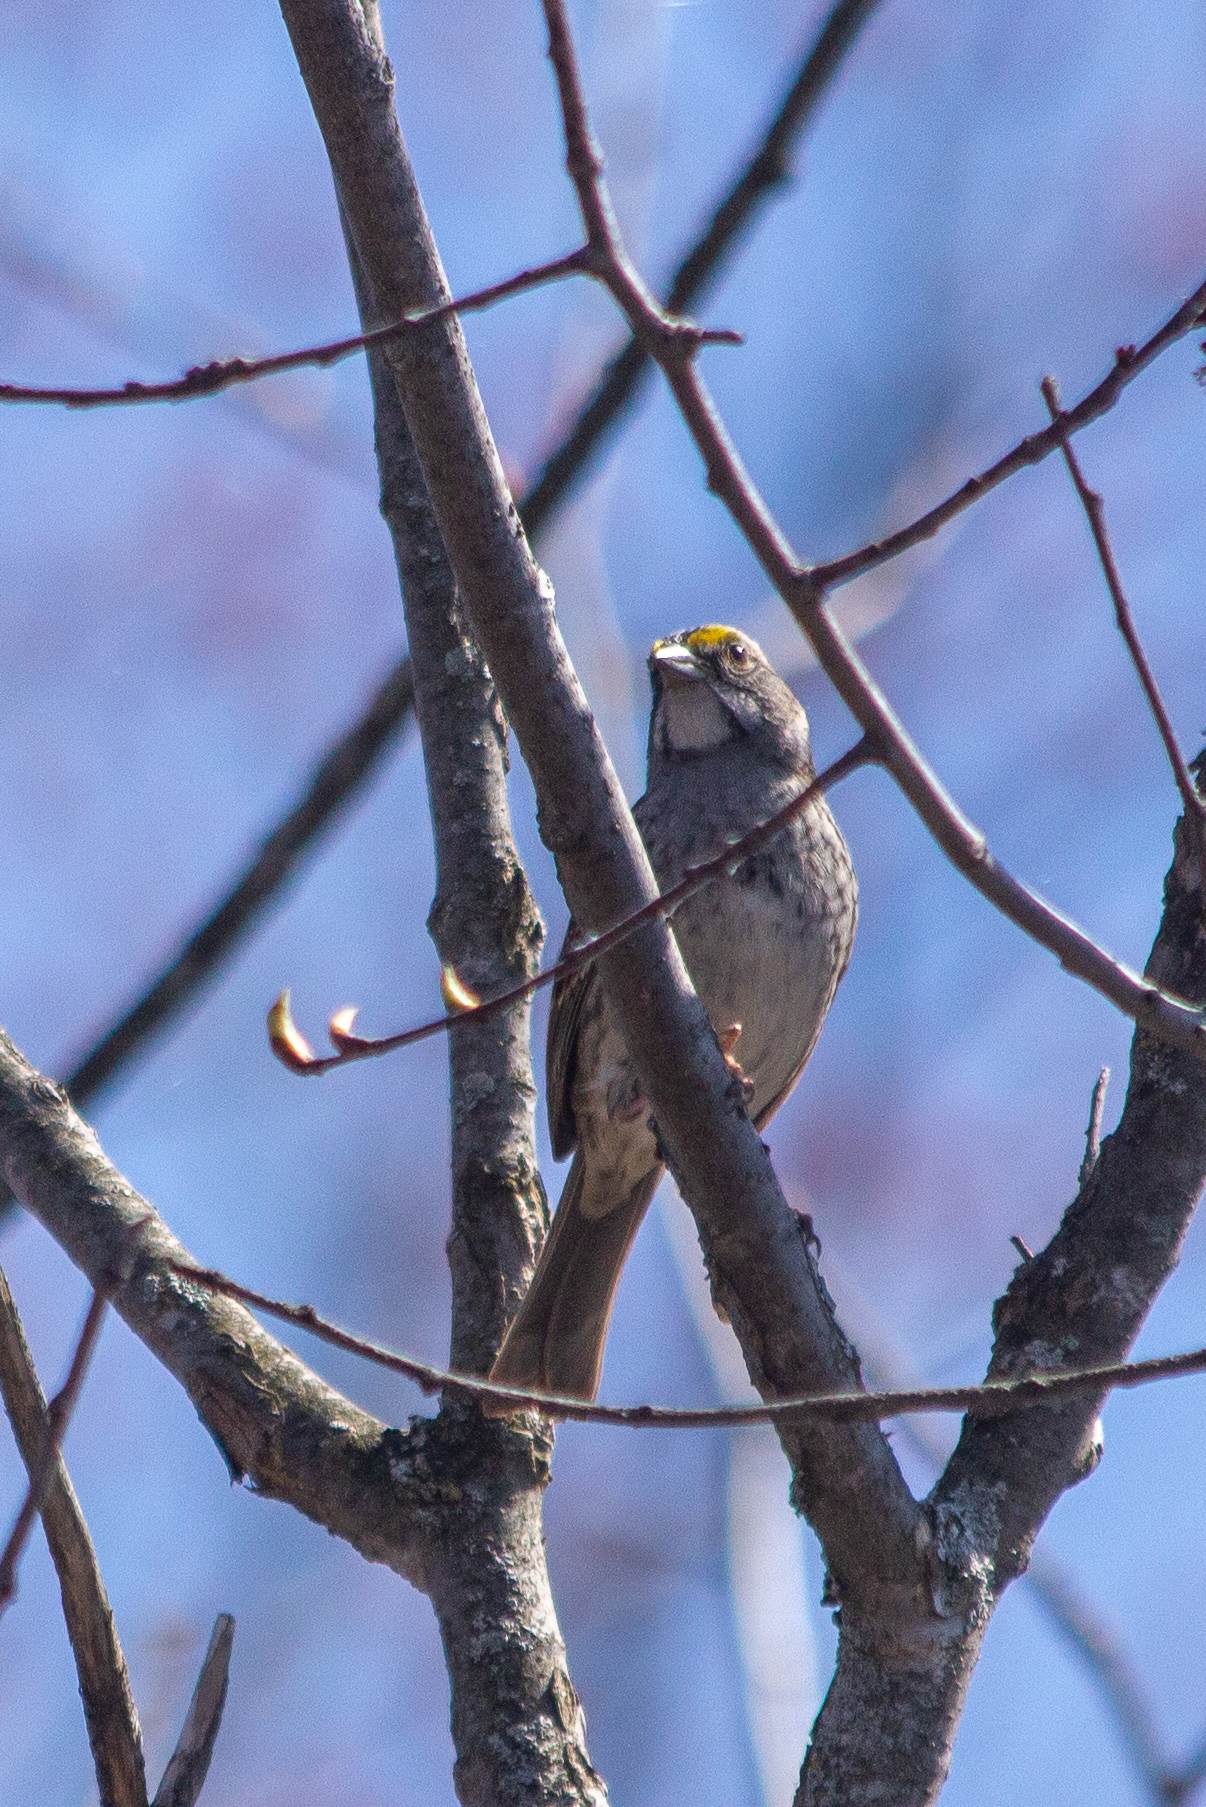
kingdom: Animalia
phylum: Chordata
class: Aves
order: Passeriformes
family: Passerellidae
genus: Zonotrichia
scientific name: Zonotrichia albicollis
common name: White-throated sparrow
